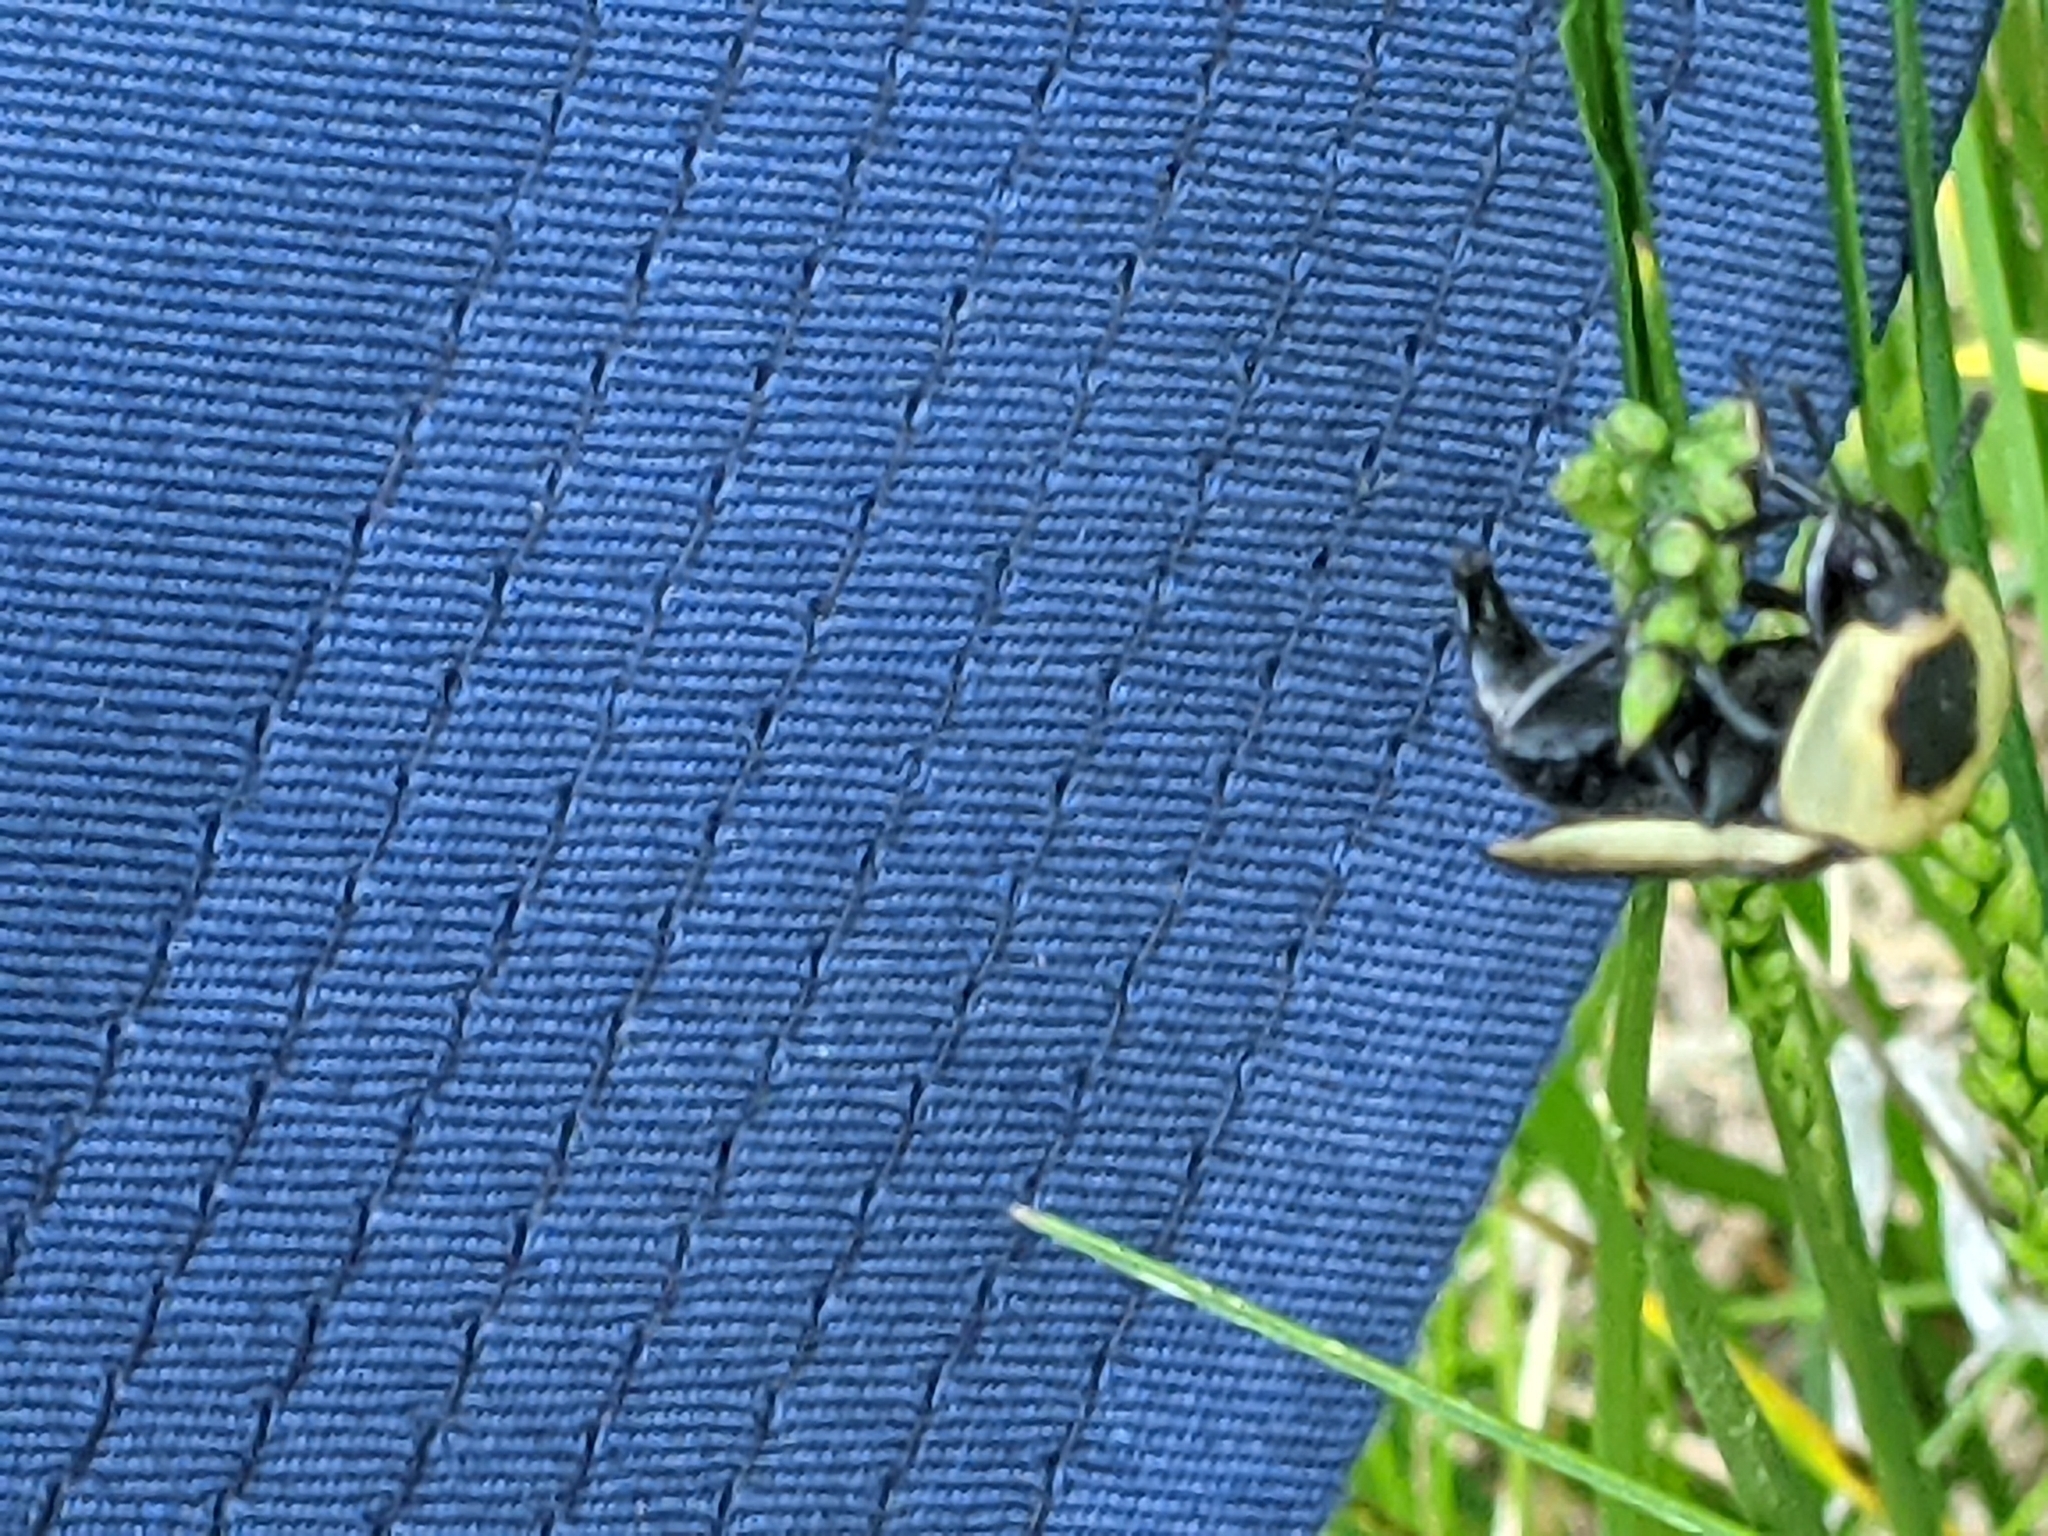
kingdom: Animalia
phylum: Arthropoda
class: Insecta
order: Coleoptera
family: Staphylinidae
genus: Necrophila
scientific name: Necrophila americana
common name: American carrion beetle
